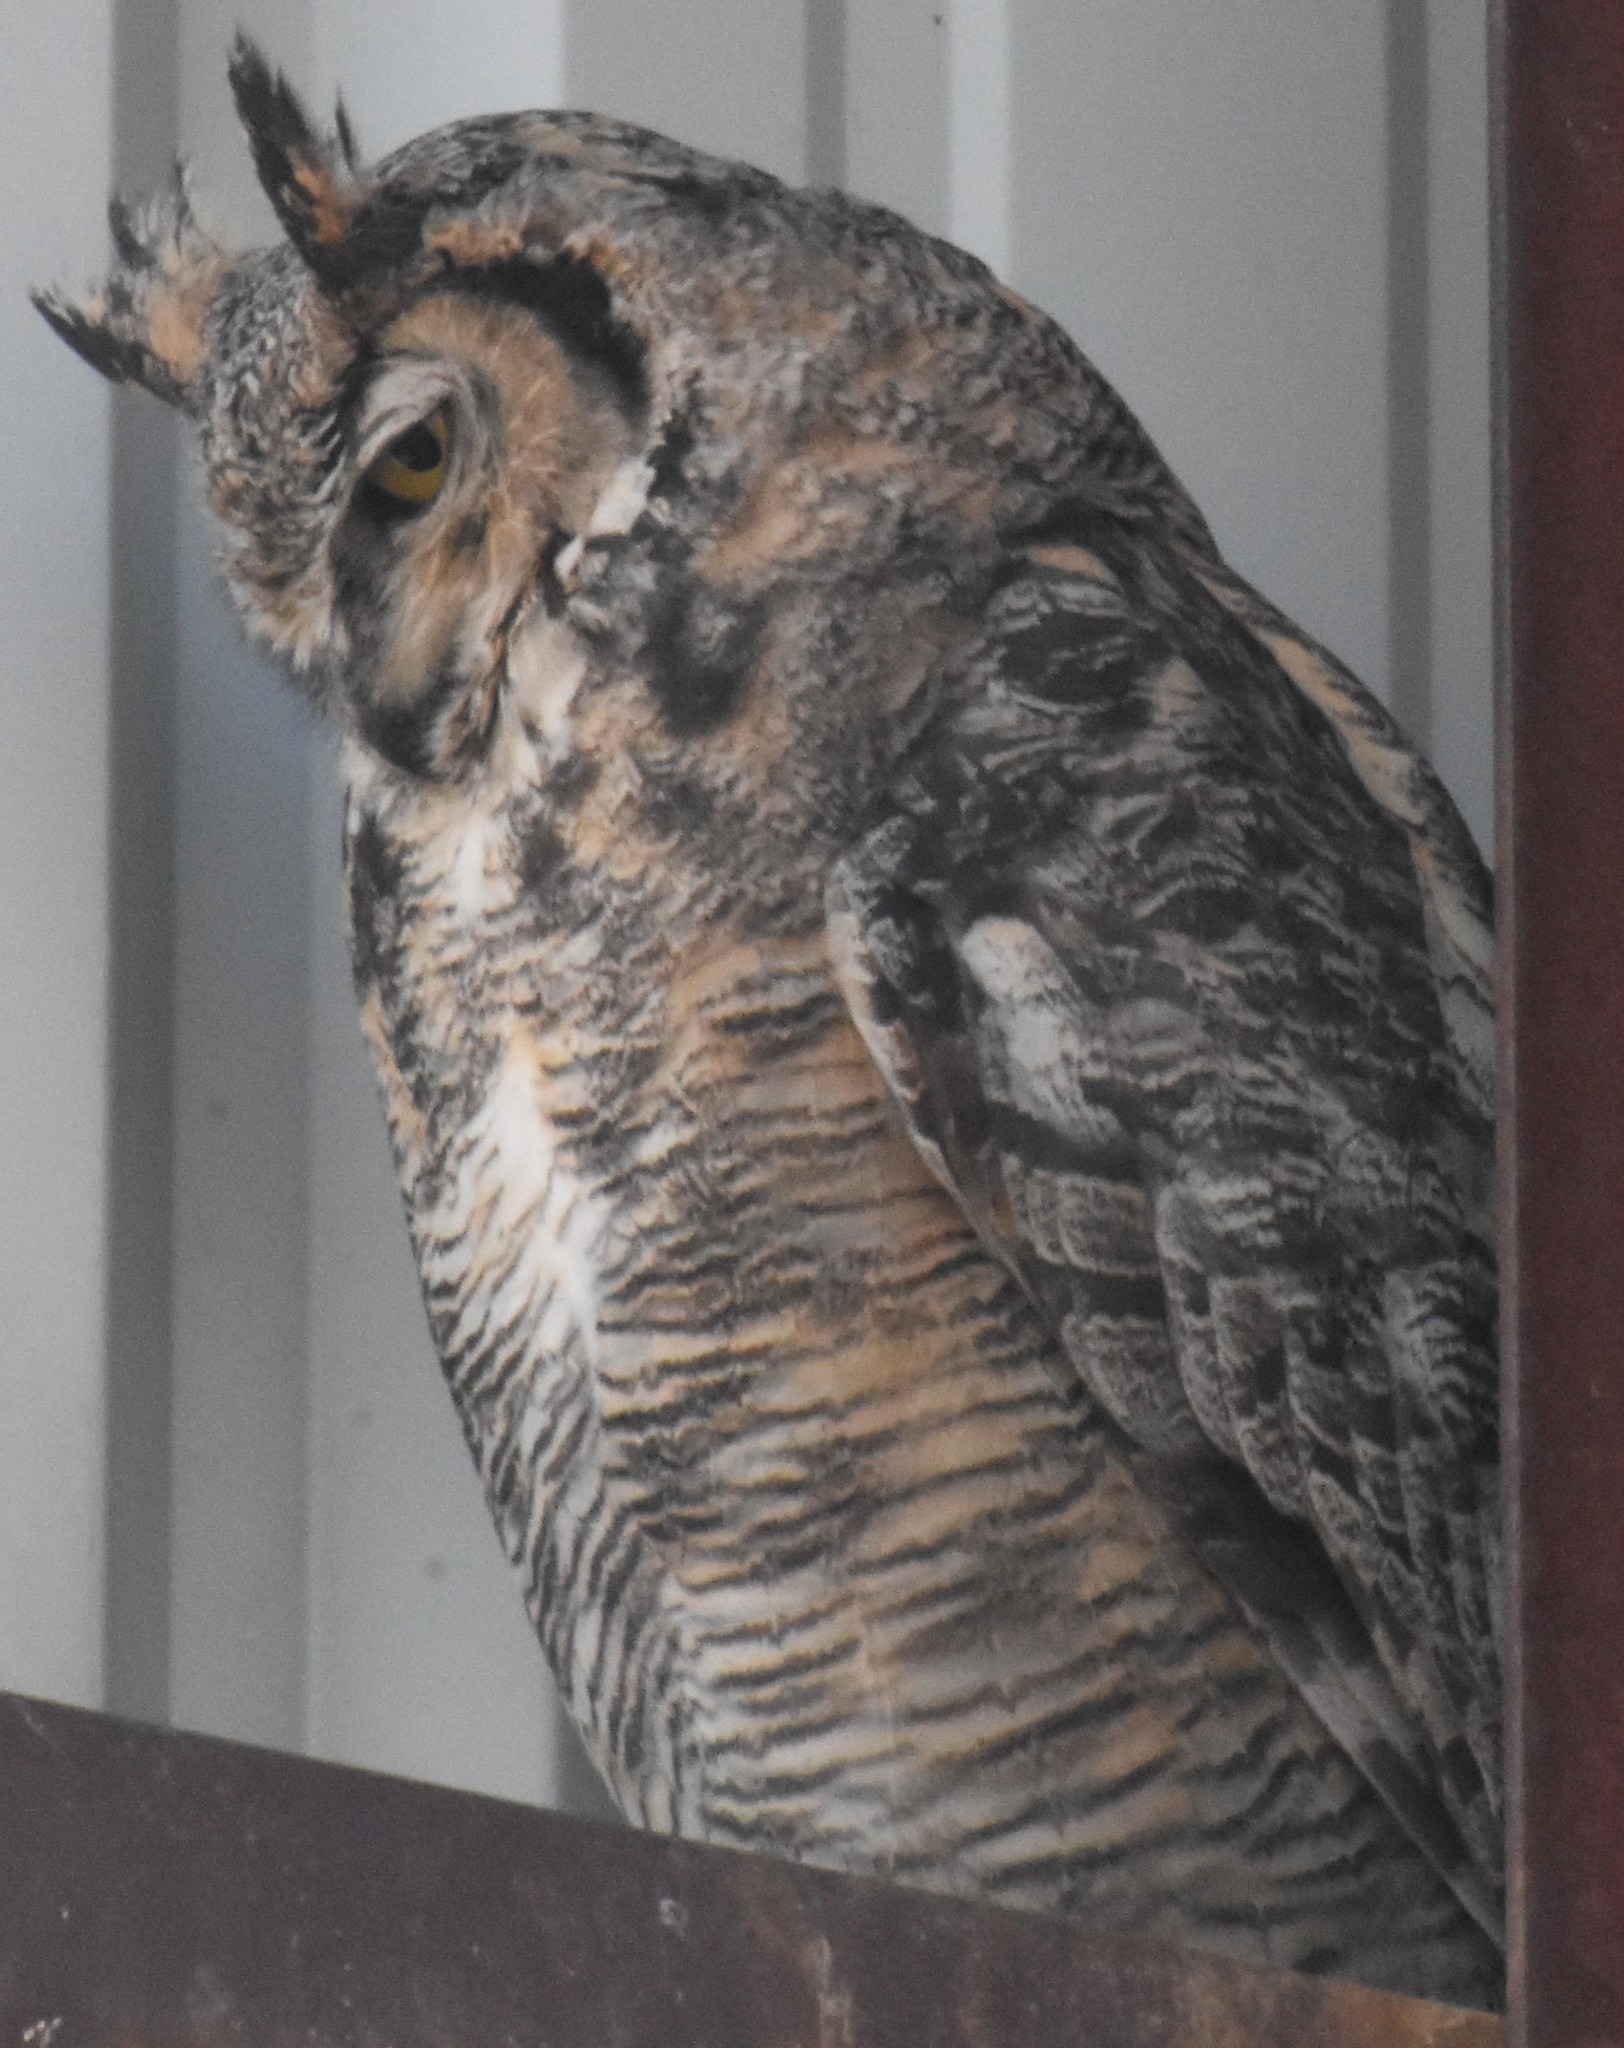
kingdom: Animalia
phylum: Chordata
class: Aves
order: Strigiformes
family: Strigidae
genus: Bubo
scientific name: Bubo virginianus
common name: Great horned owl
